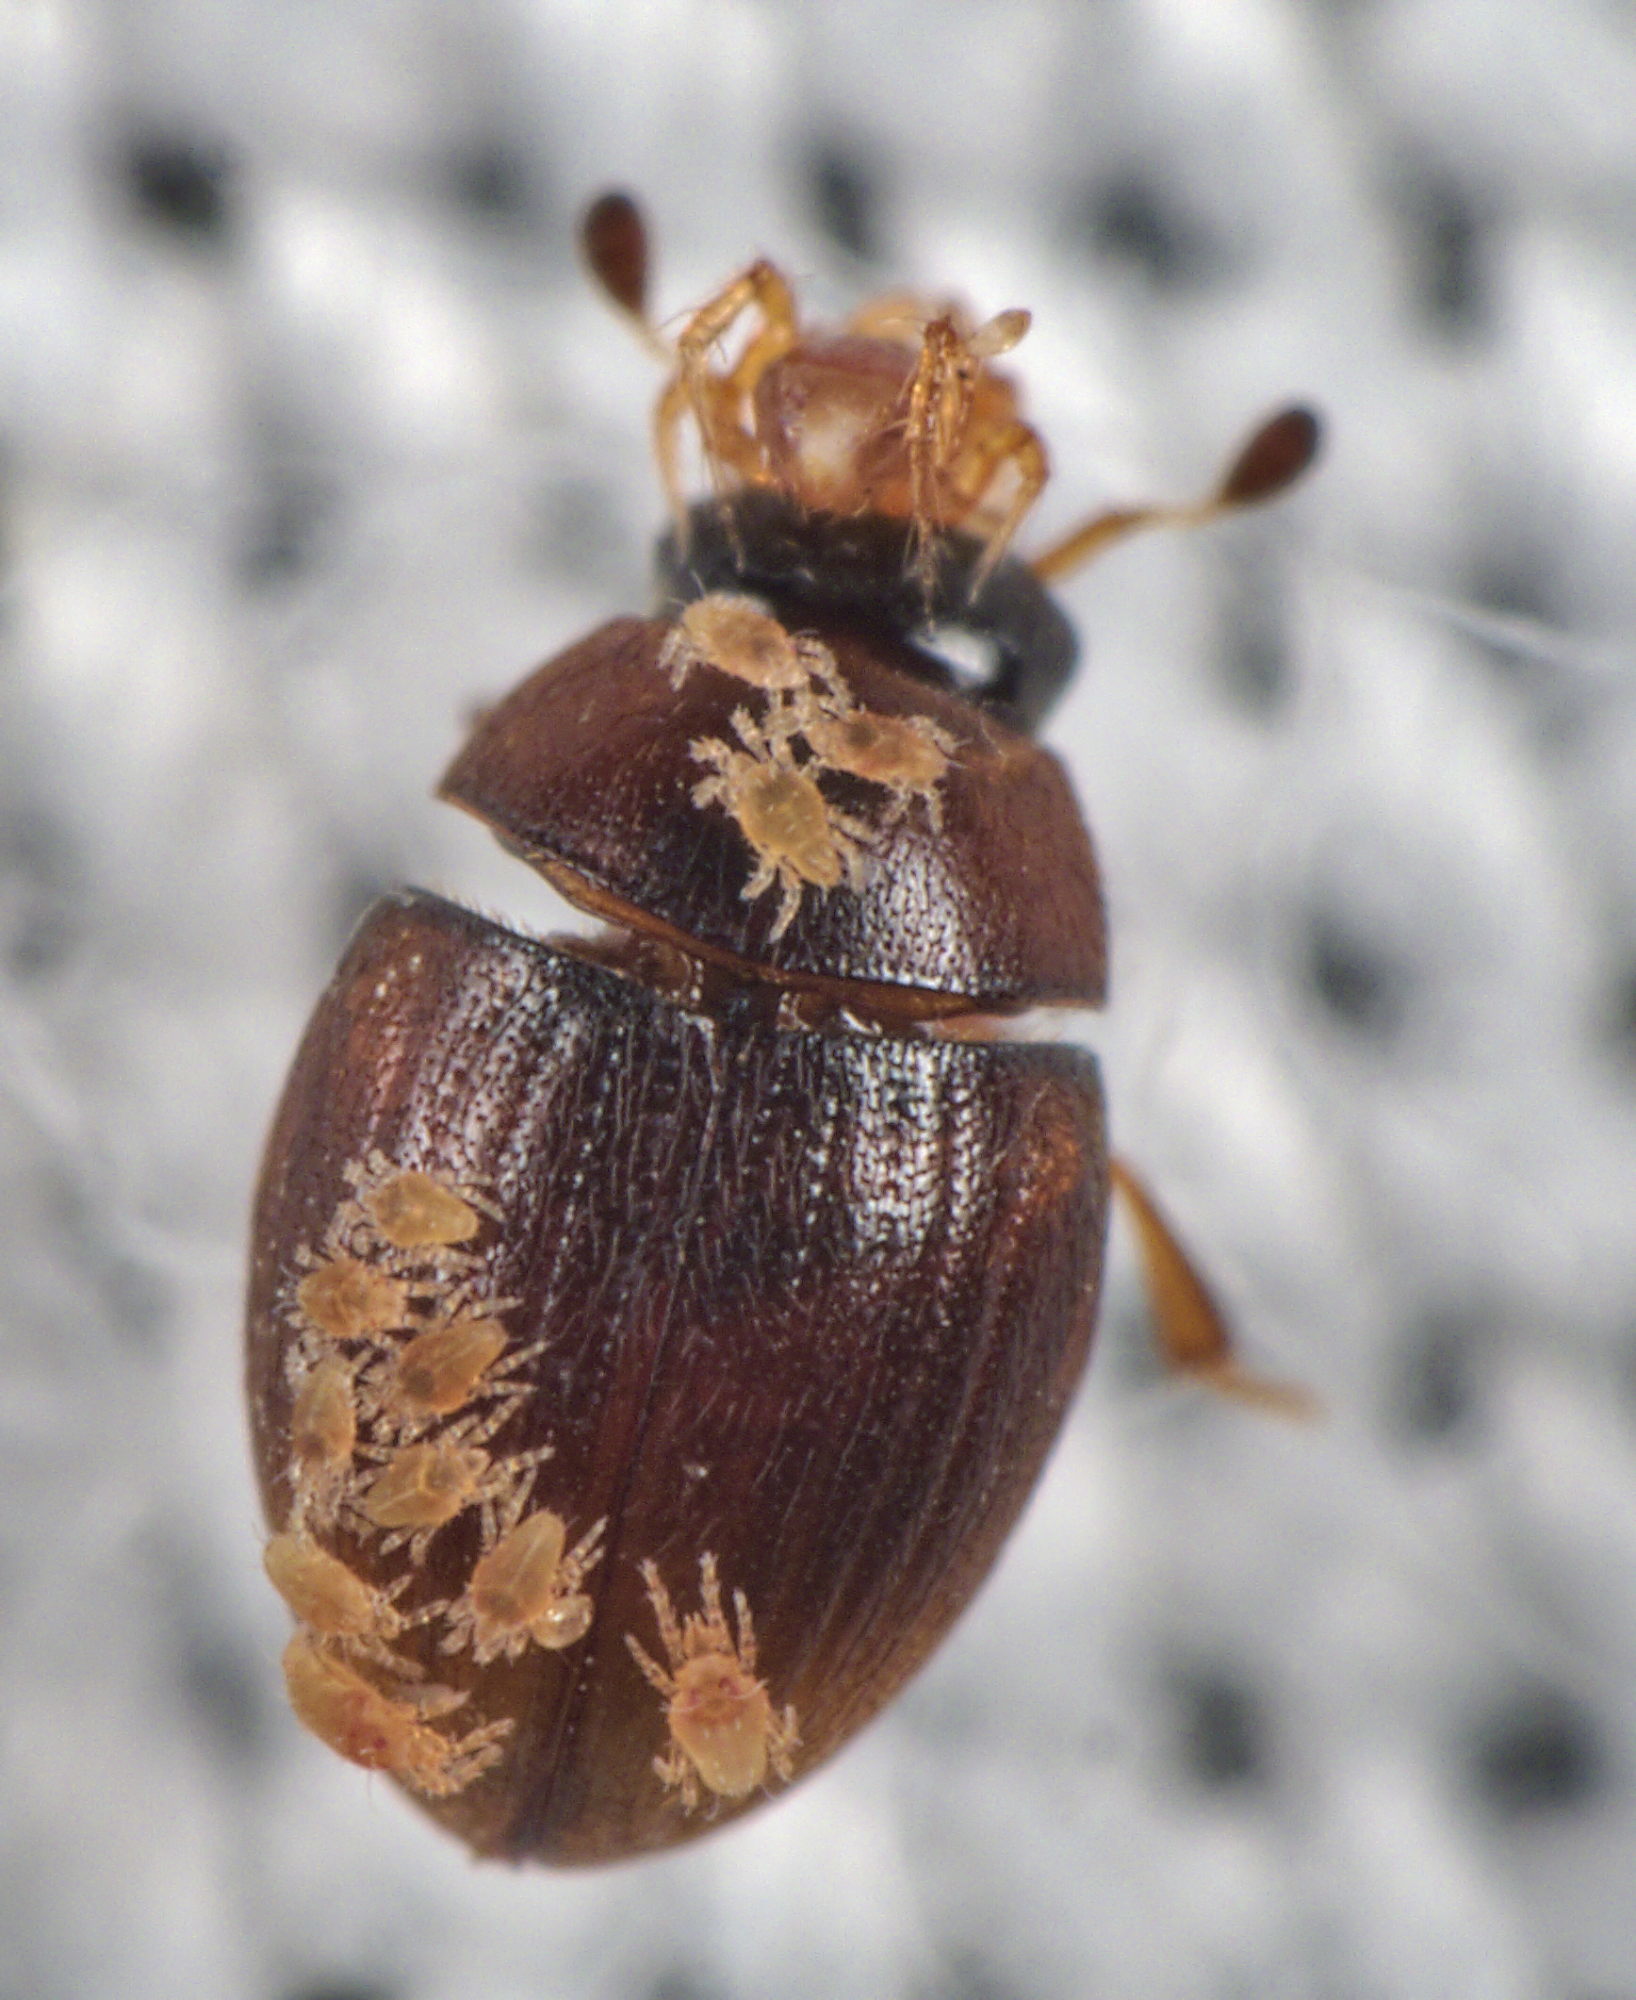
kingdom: Animalia
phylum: Arthropoda
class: Insecta
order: Coleoptera
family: Hydrophilidae
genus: Cryptopleurum
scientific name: Cryptopleurum subtile
